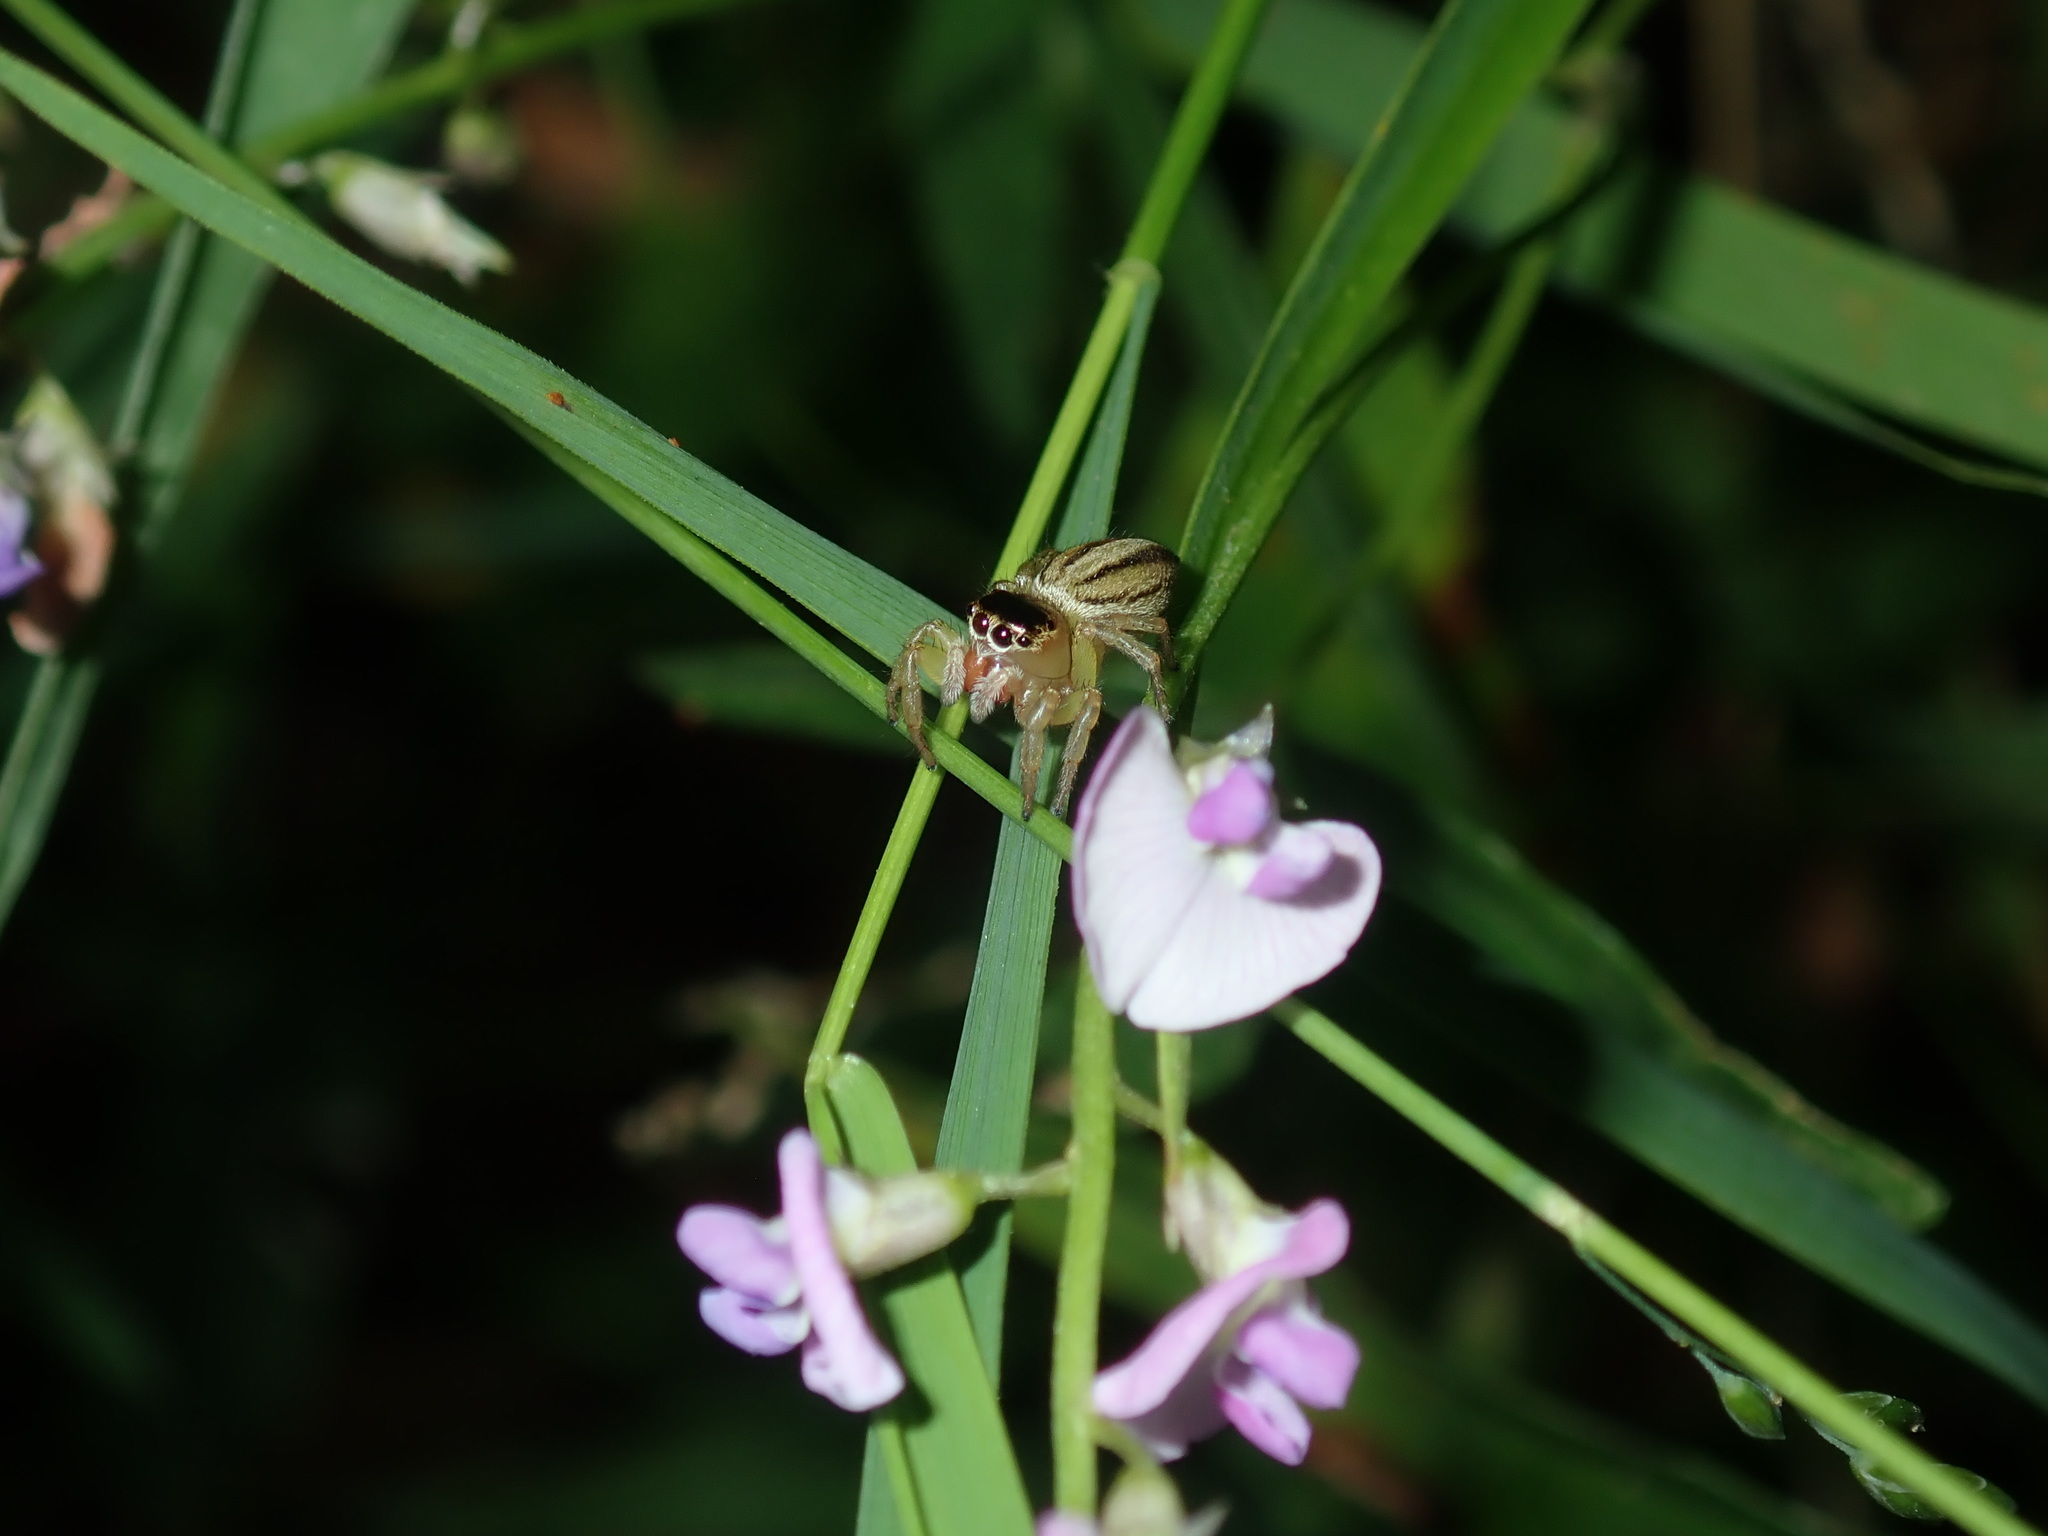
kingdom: Animalia
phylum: Arthropoda
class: Arachnida
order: Araneae
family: Salticidae
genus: Maratus
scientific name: Maratus scutulatus
